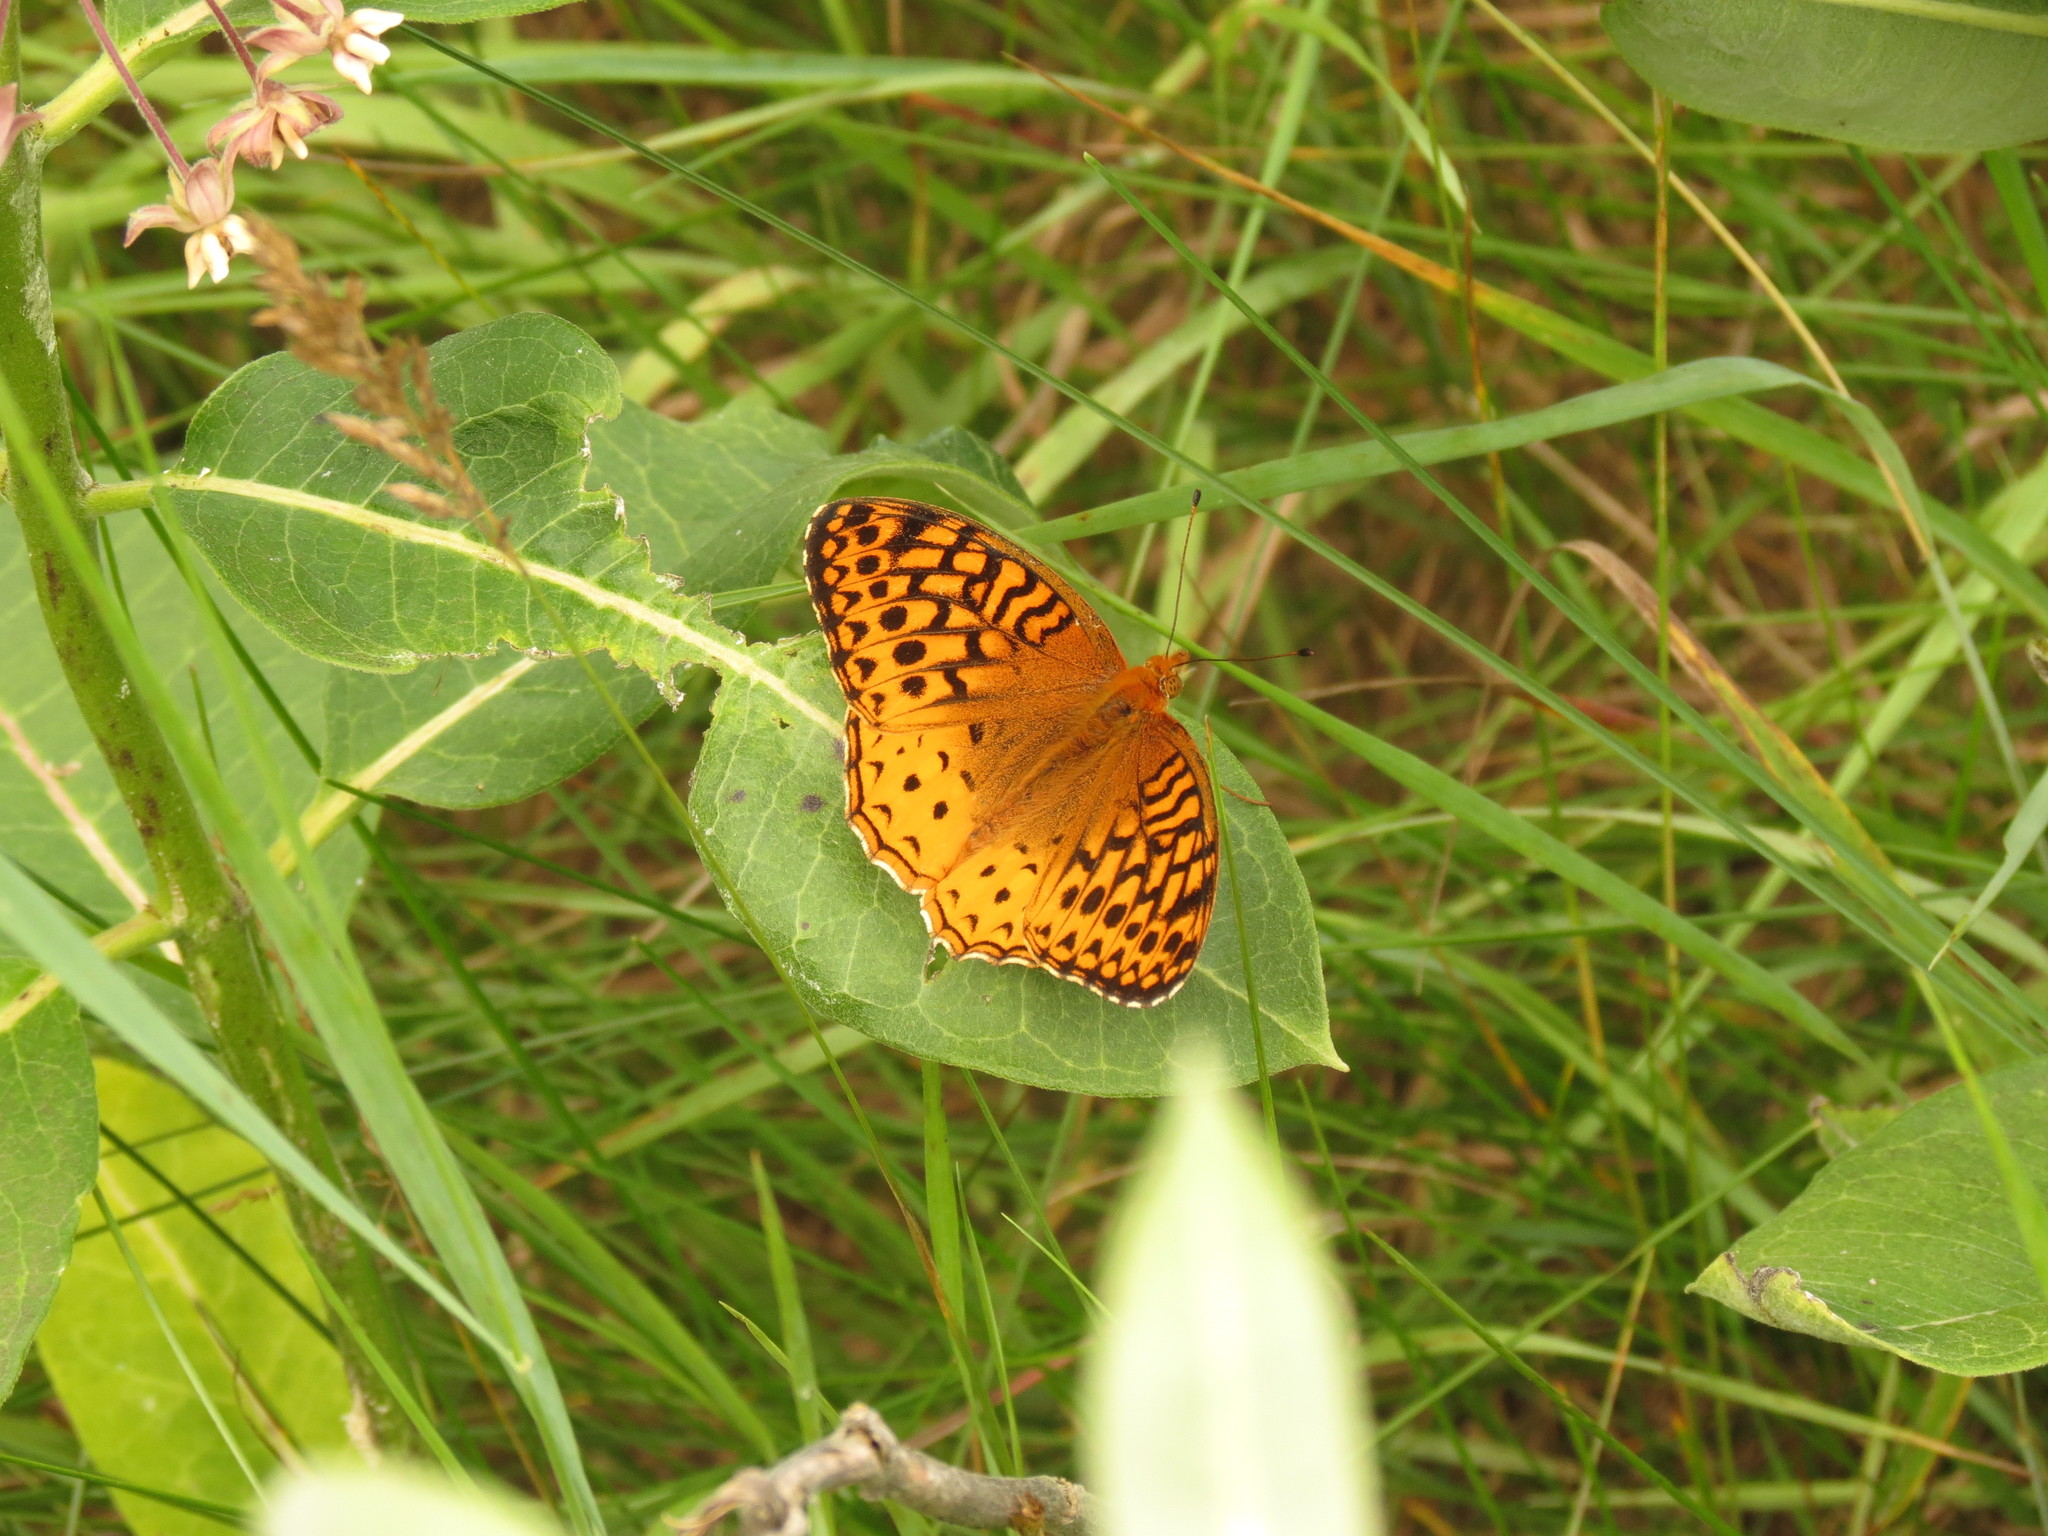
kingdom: Animalia
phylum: Arthropoda
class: Insecta
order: Lepidoptera
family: Nymphalidae
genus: Speyeria
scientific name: Speyeria cybele
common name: Great spangled fritillary
